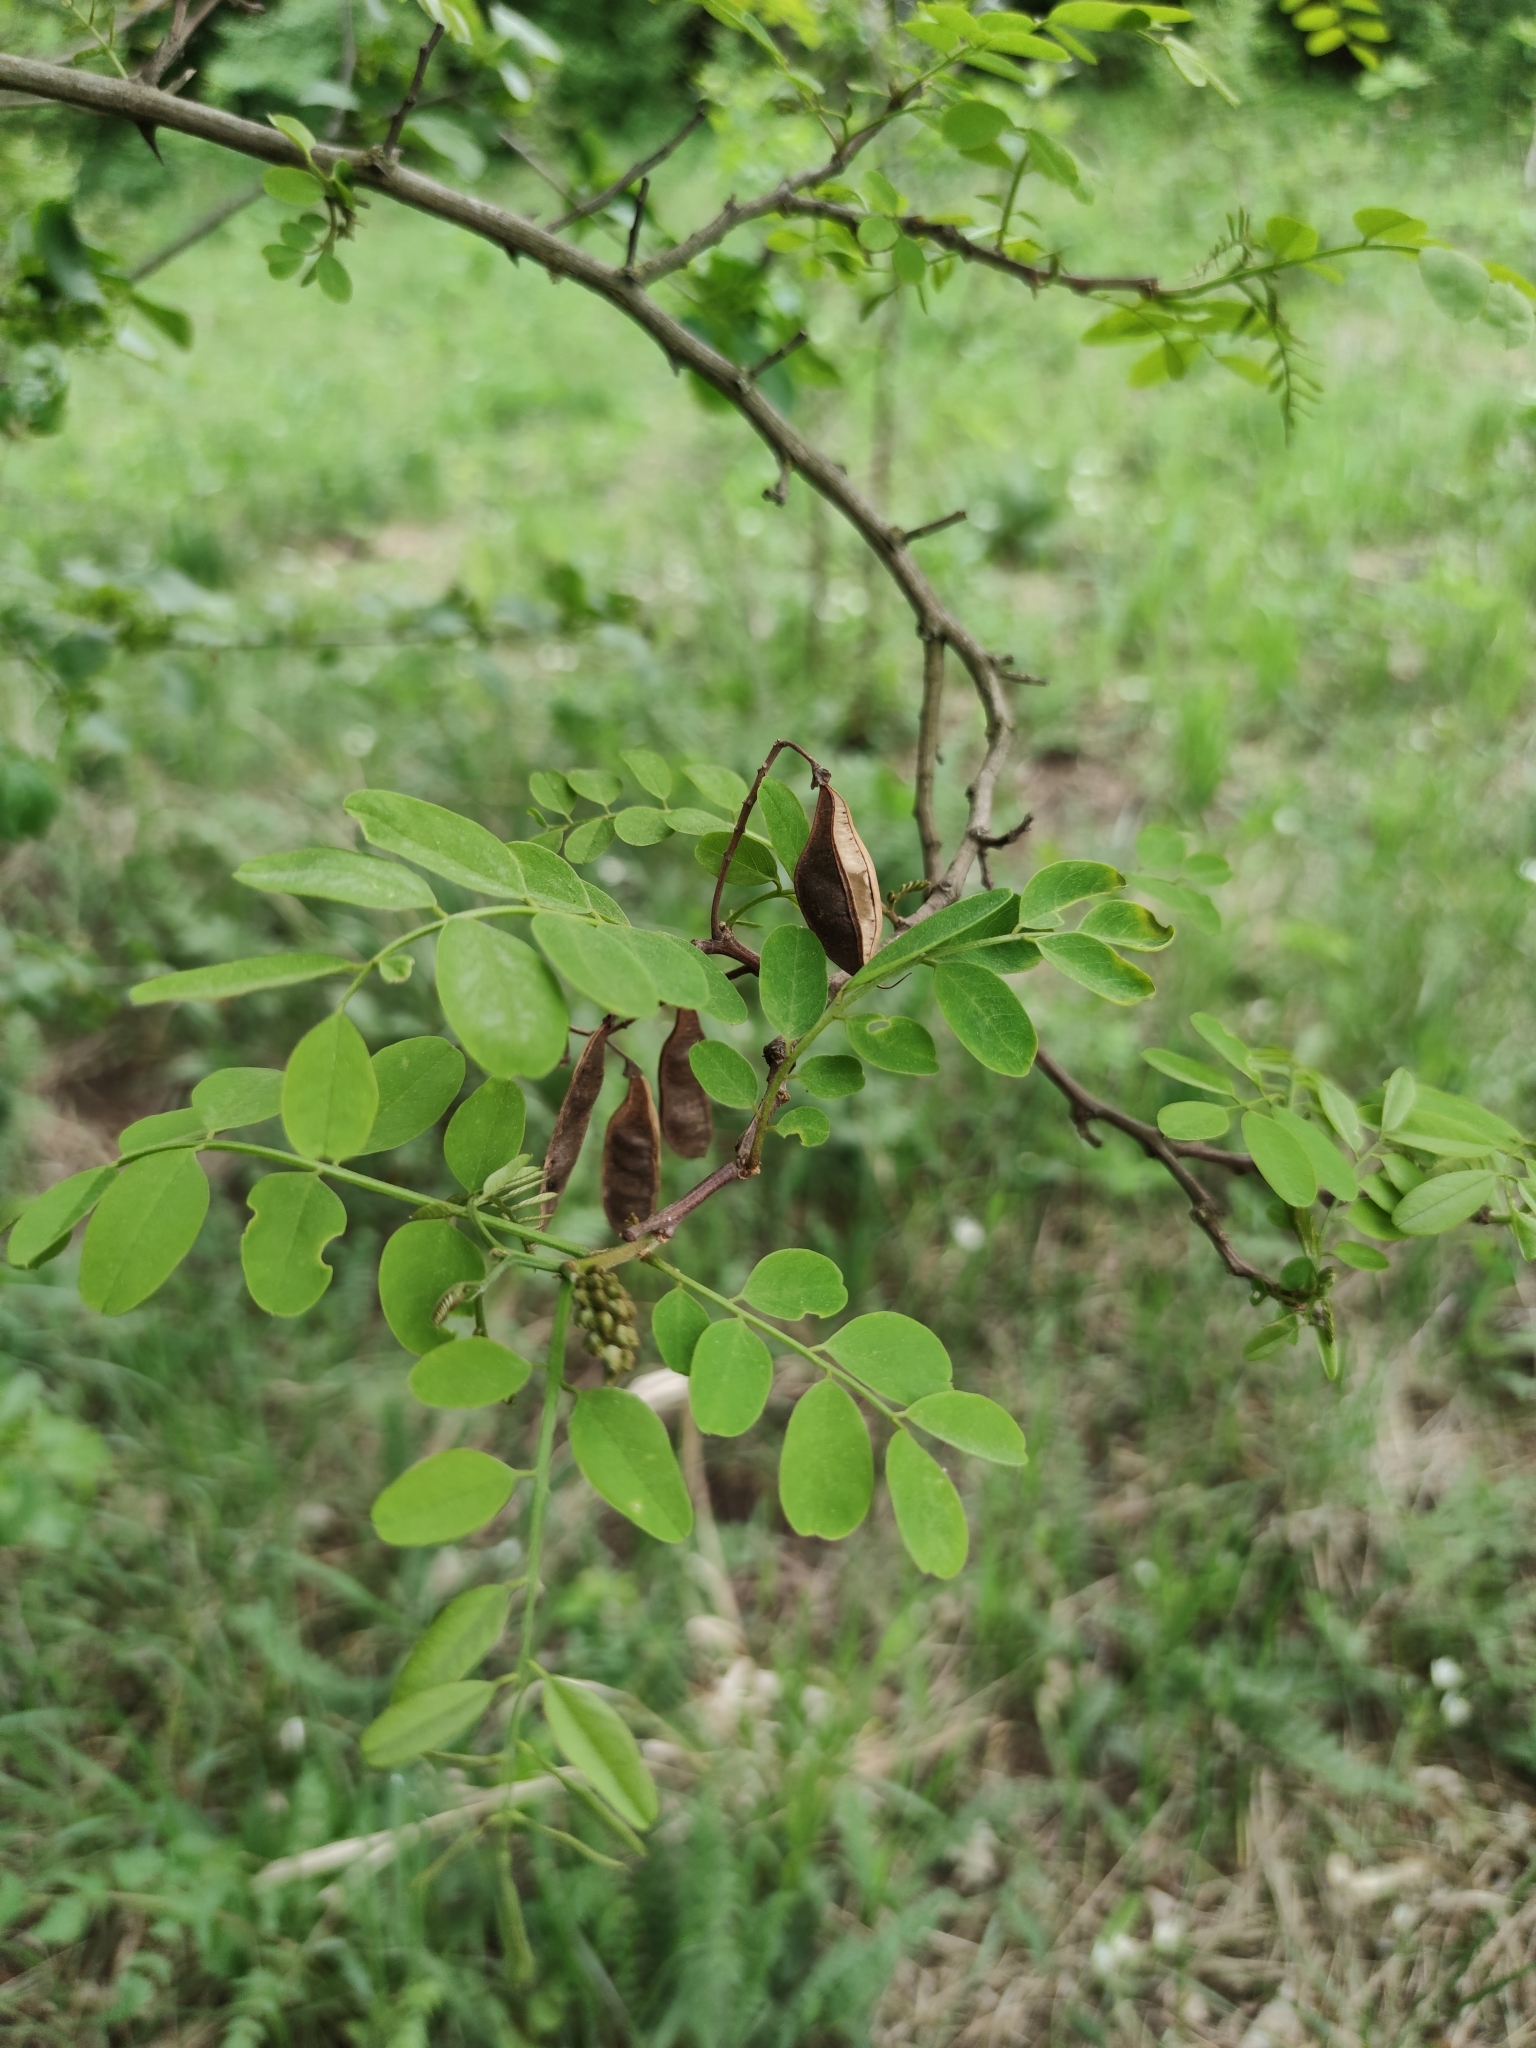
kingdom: Plantae
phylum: Tracheophyta
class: Magnoliopsida
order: Fabales
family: Fabaceae
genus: Robinia
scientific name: Robinia pseudoacacia
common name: Black locust
